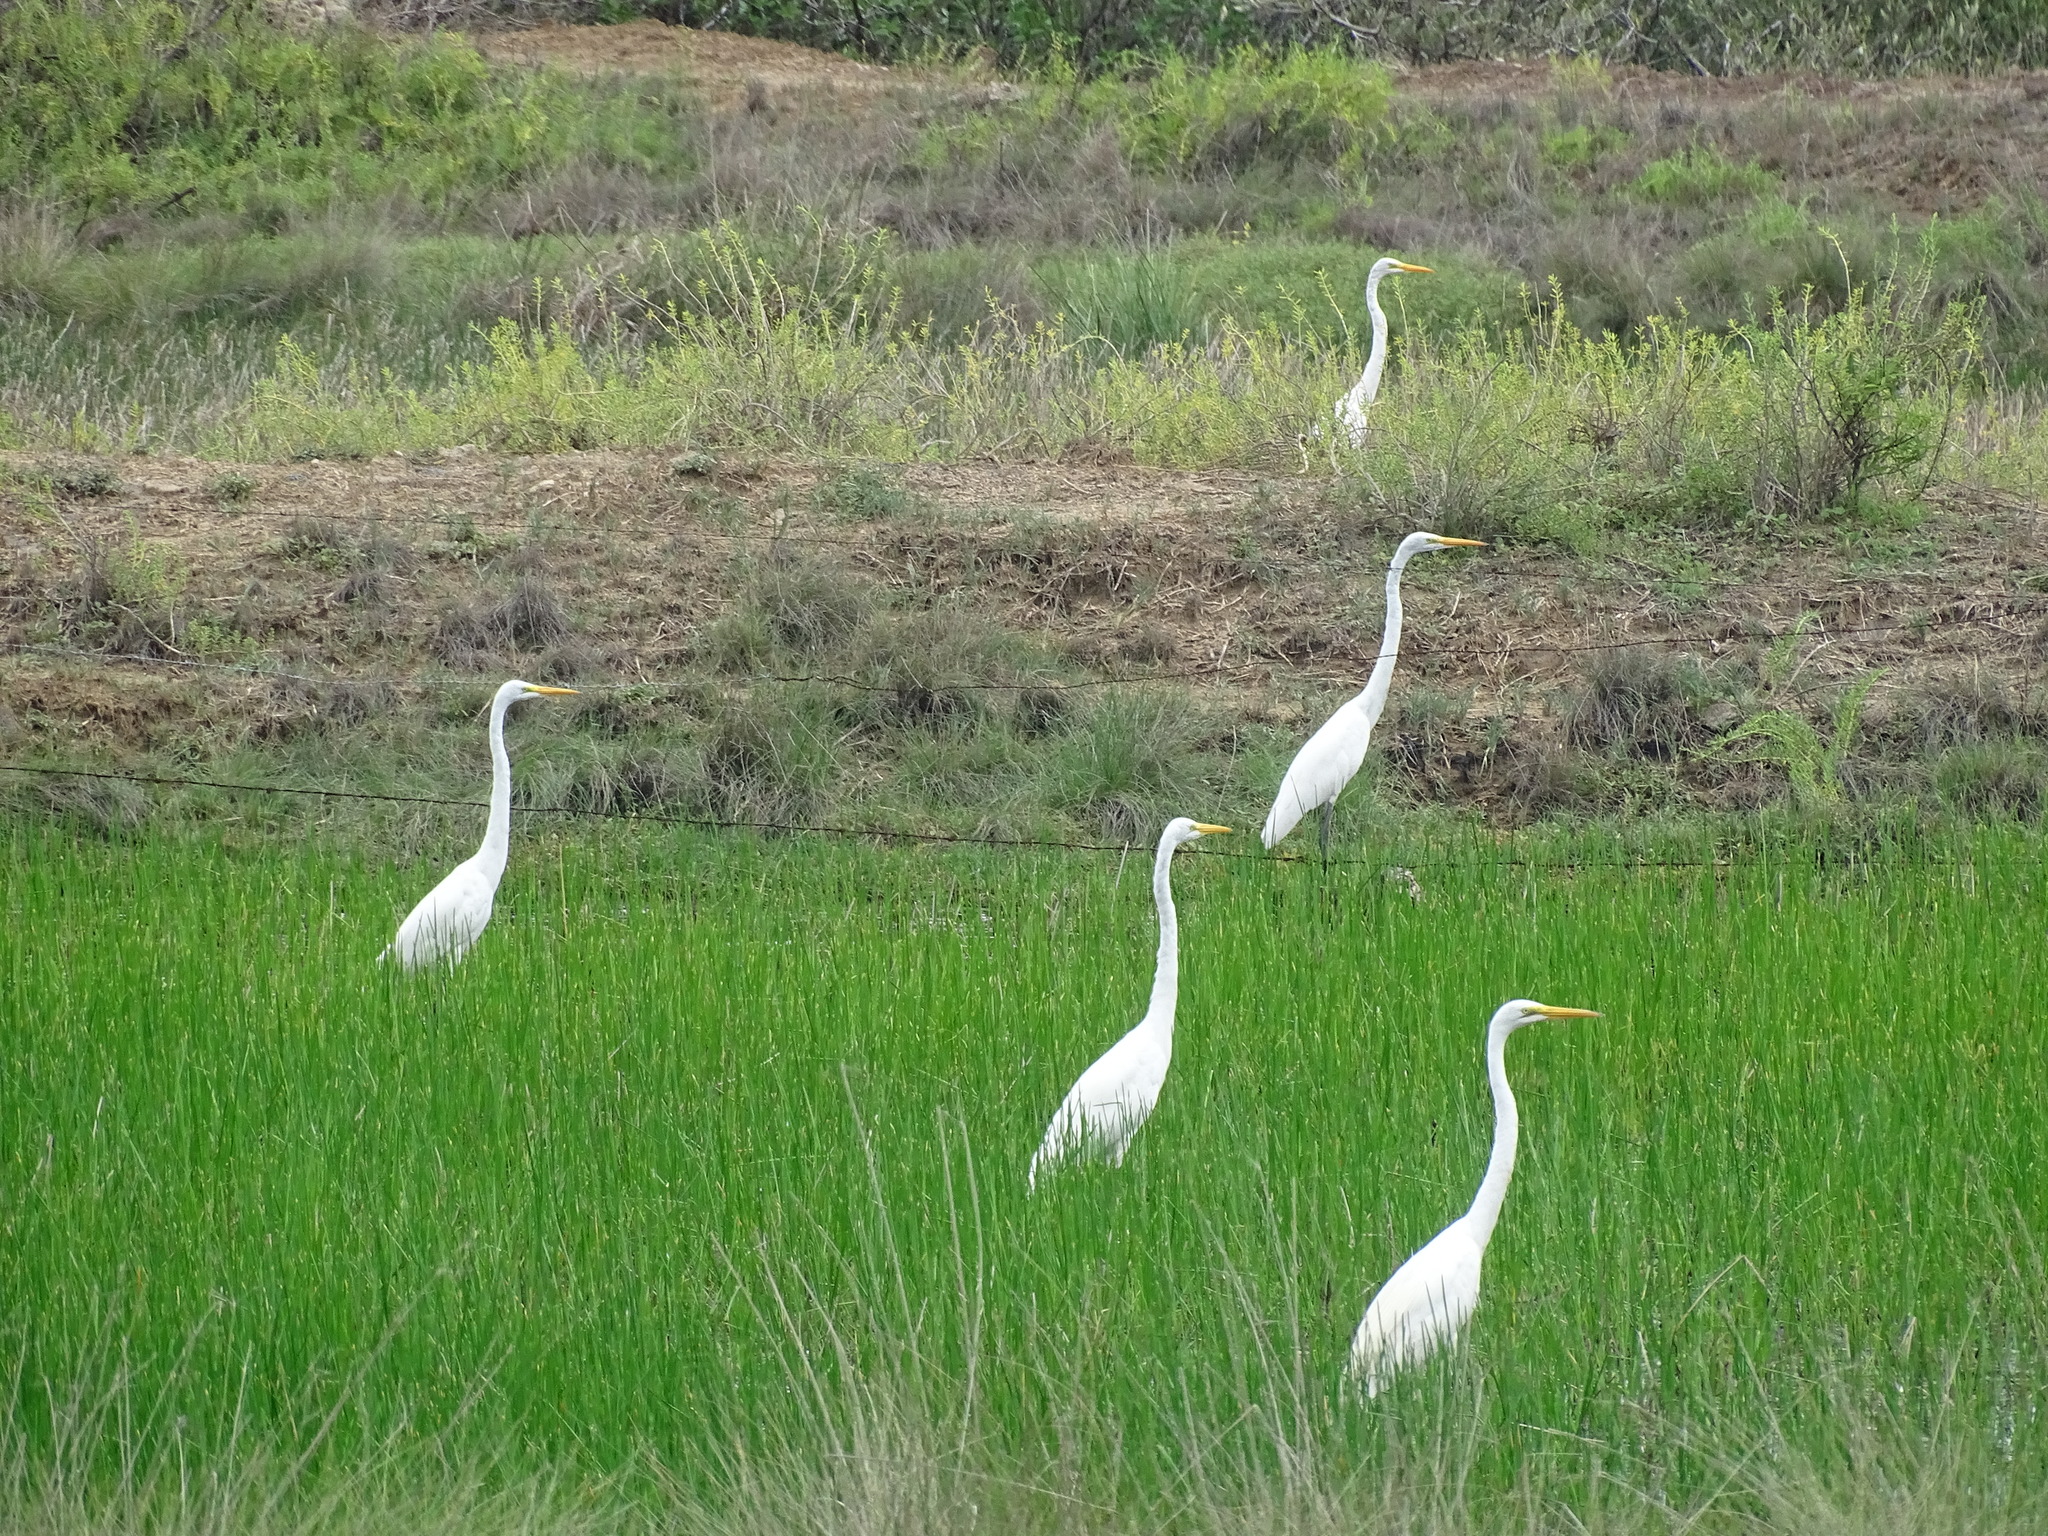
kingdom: Animalia
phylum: Chordata
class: Aves
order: Pelecaniformes
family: Ardeidae
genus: Ardea
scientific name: Ardea alba
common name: Great egret
